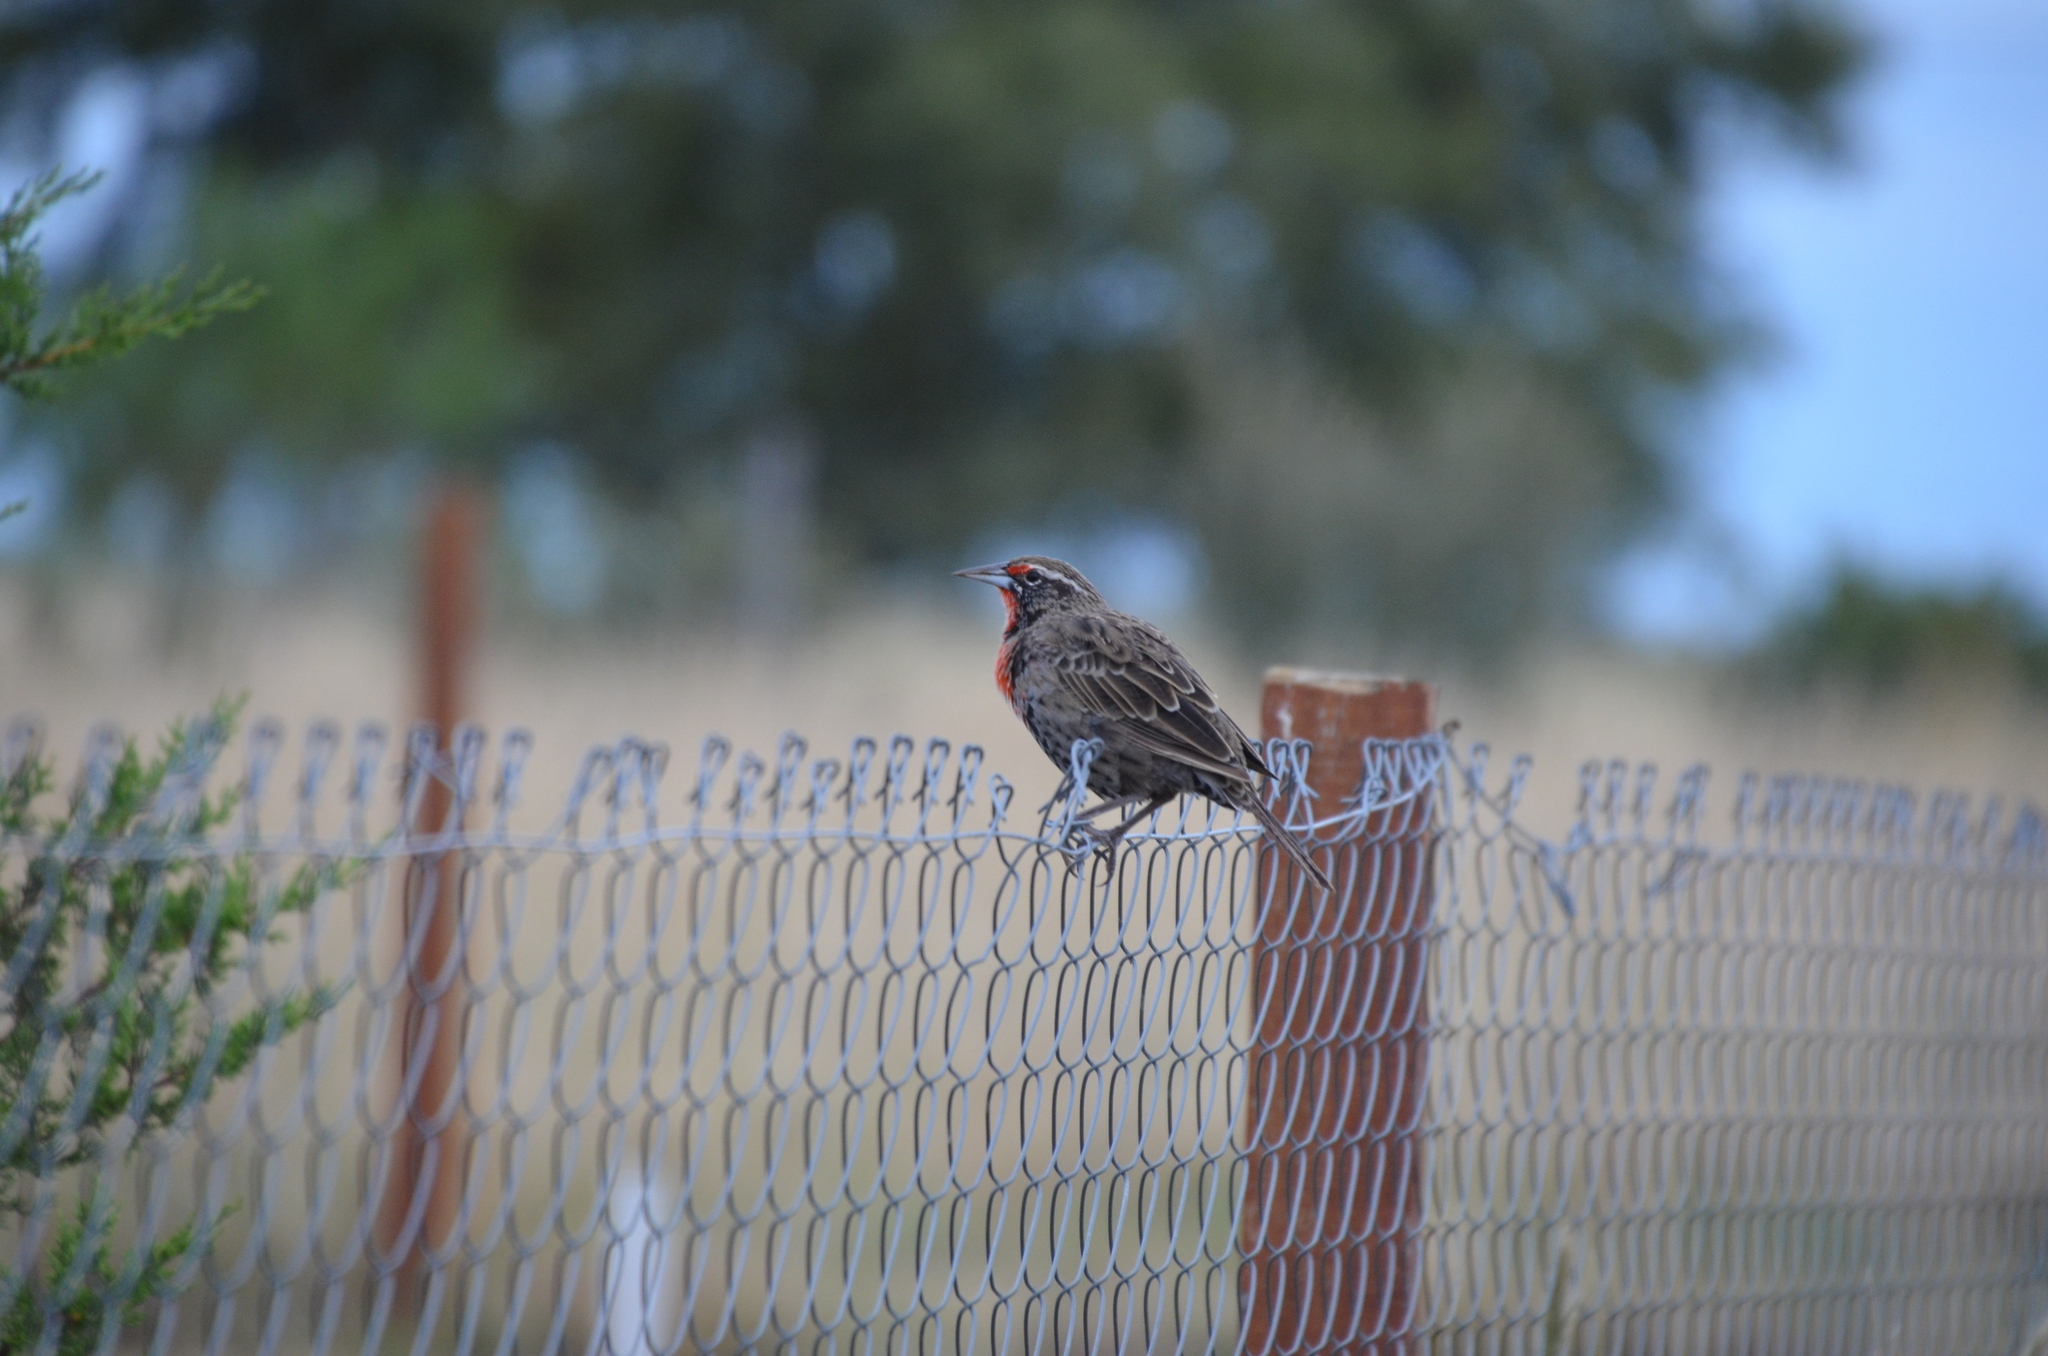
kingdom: Animalia
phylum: Chordata
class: Aves
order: Passeriformes
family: Icteridae
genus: Sturnella
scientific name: Sturnella loyca
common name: Long-tailed meadowlark
